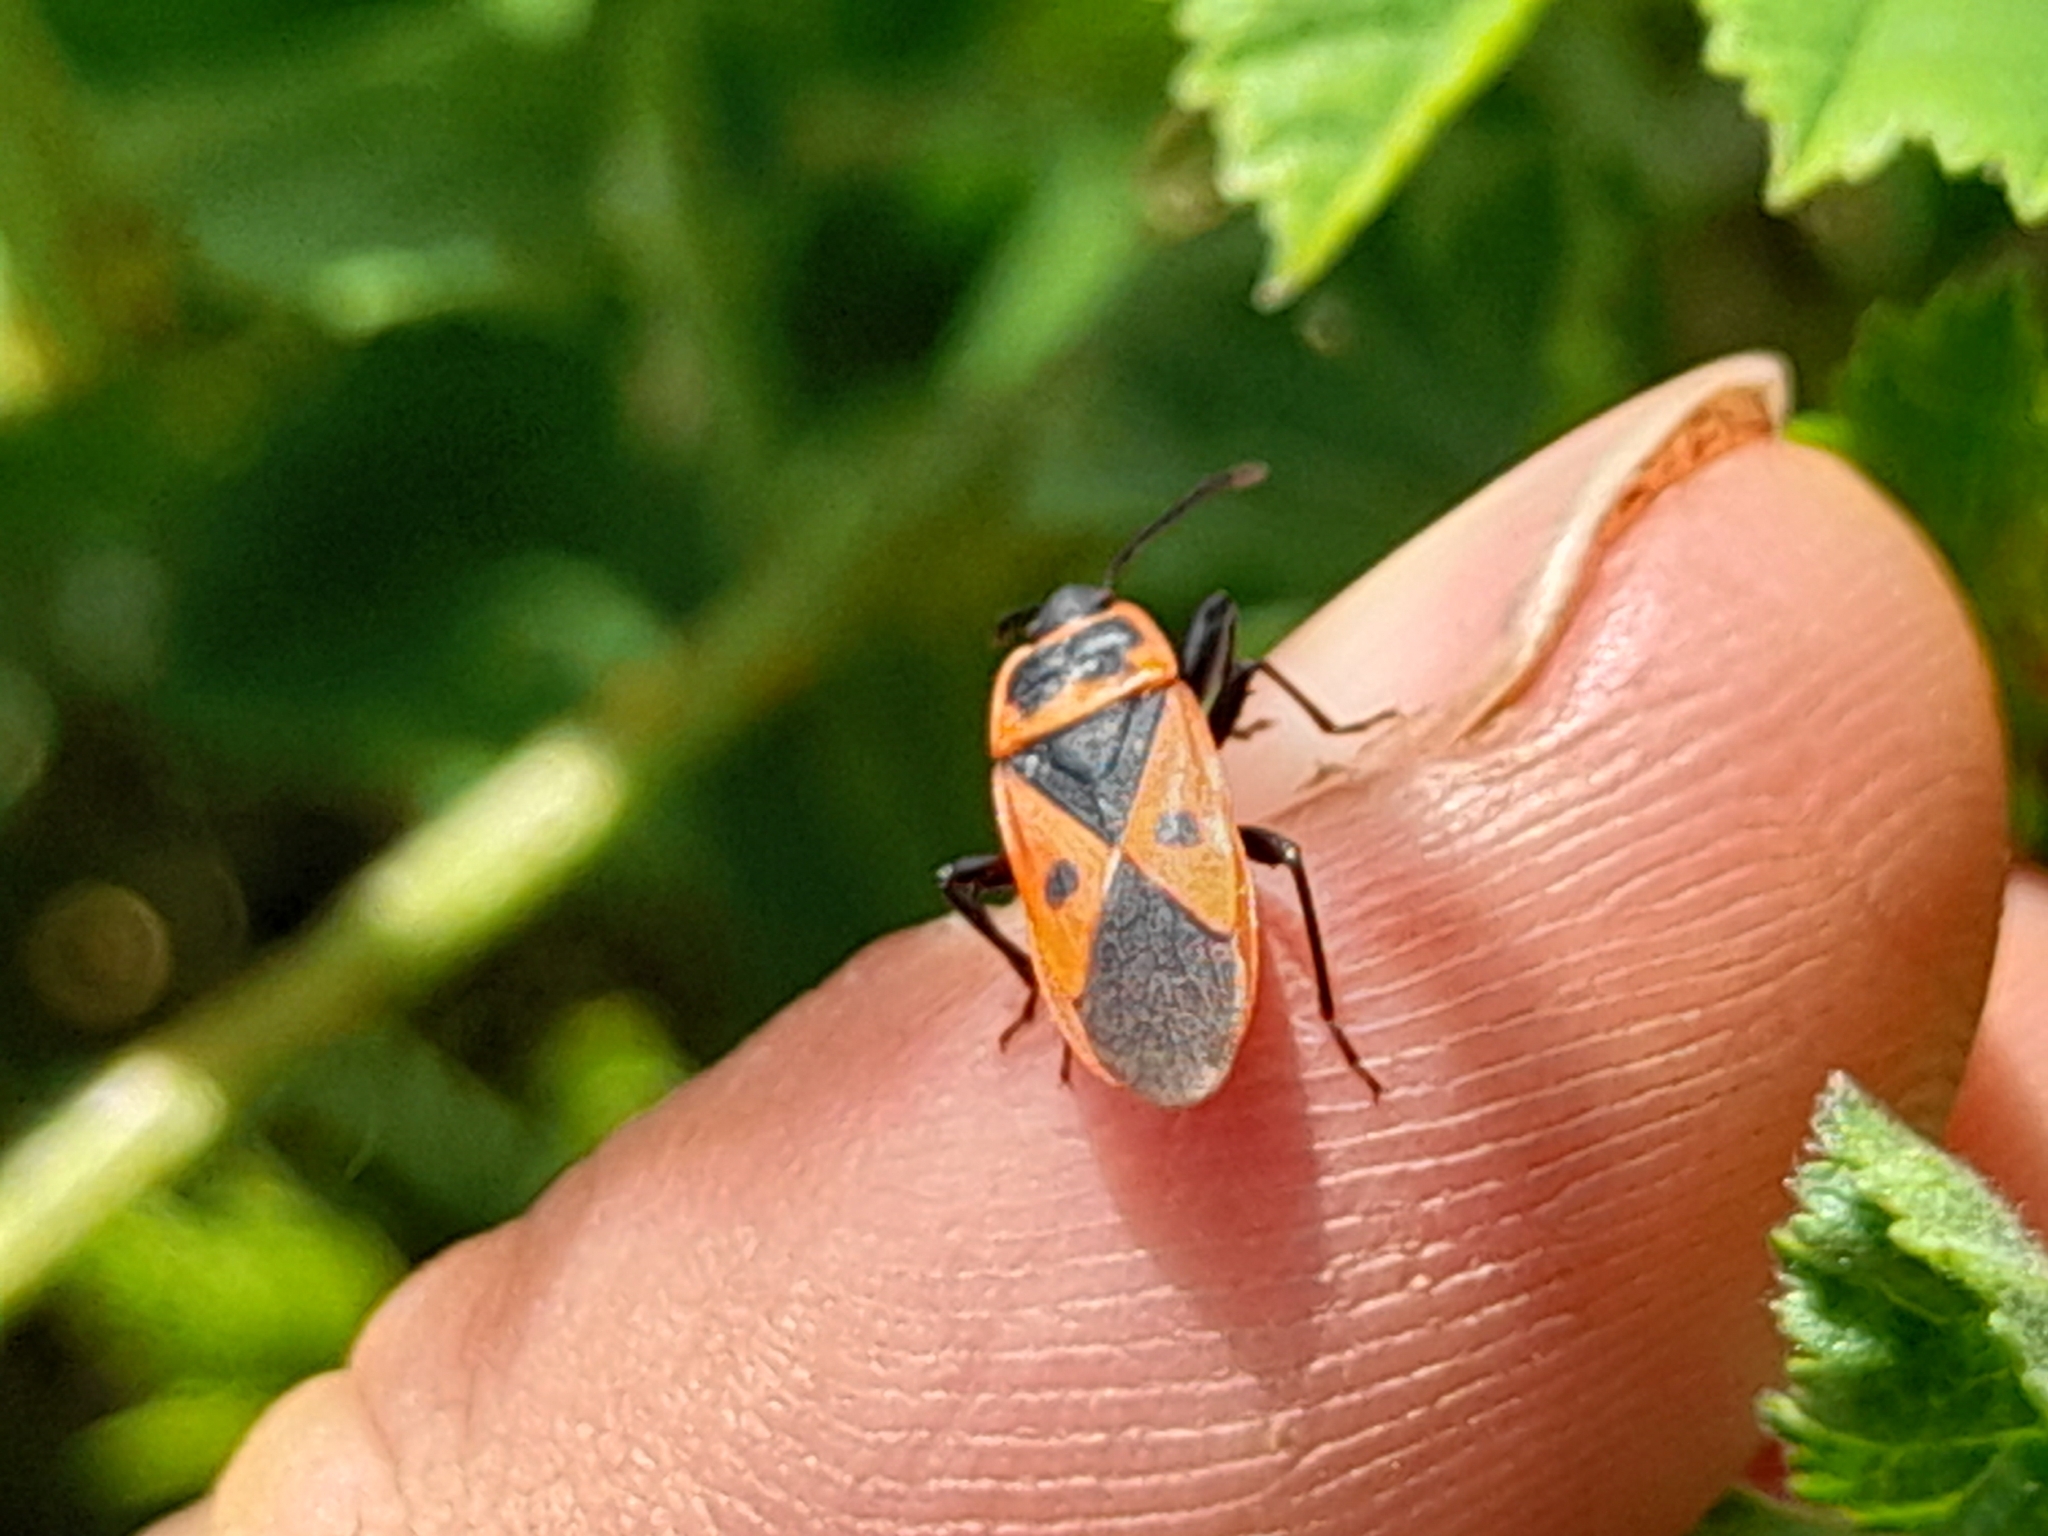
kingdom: Animalia
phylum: Arthropoda
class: Insecta
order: Hemiptera
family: Pyrrhocoridae
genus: Scantius
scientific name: Scantius aegyptius
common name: Red bug
